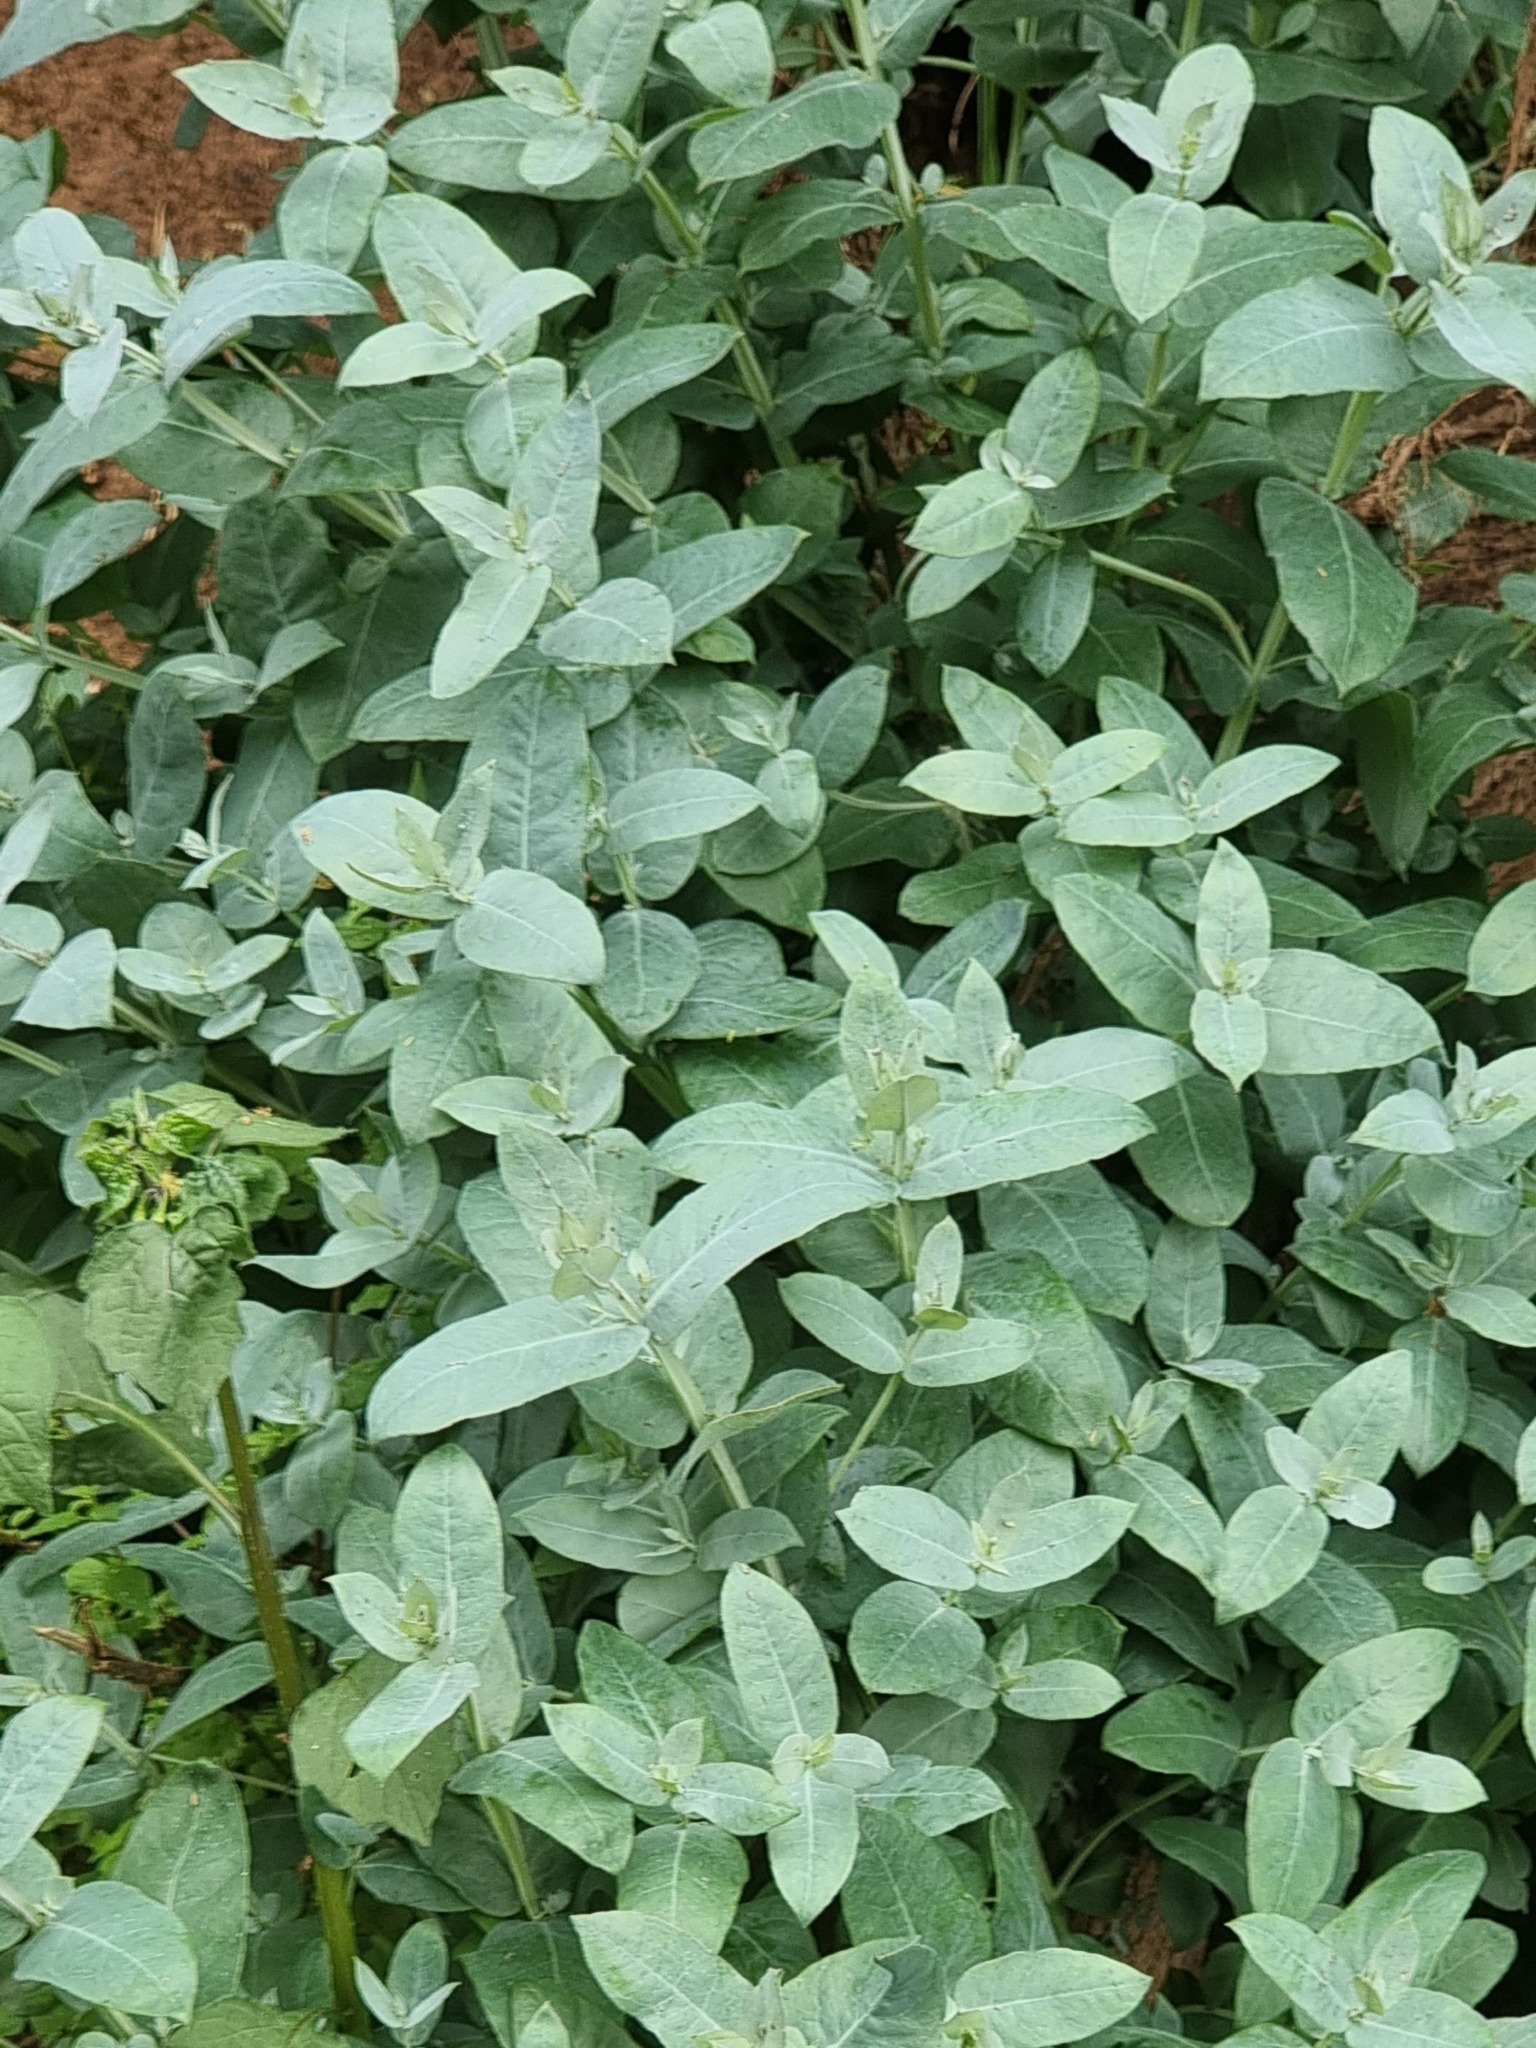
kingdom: Plantae
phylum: Tracheophyta
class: Magnoliopsida
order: Myrtales
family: Myrtaceae
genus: Eucalyptus
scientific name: Eucalyptus globulus
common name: Southern blue-gum
